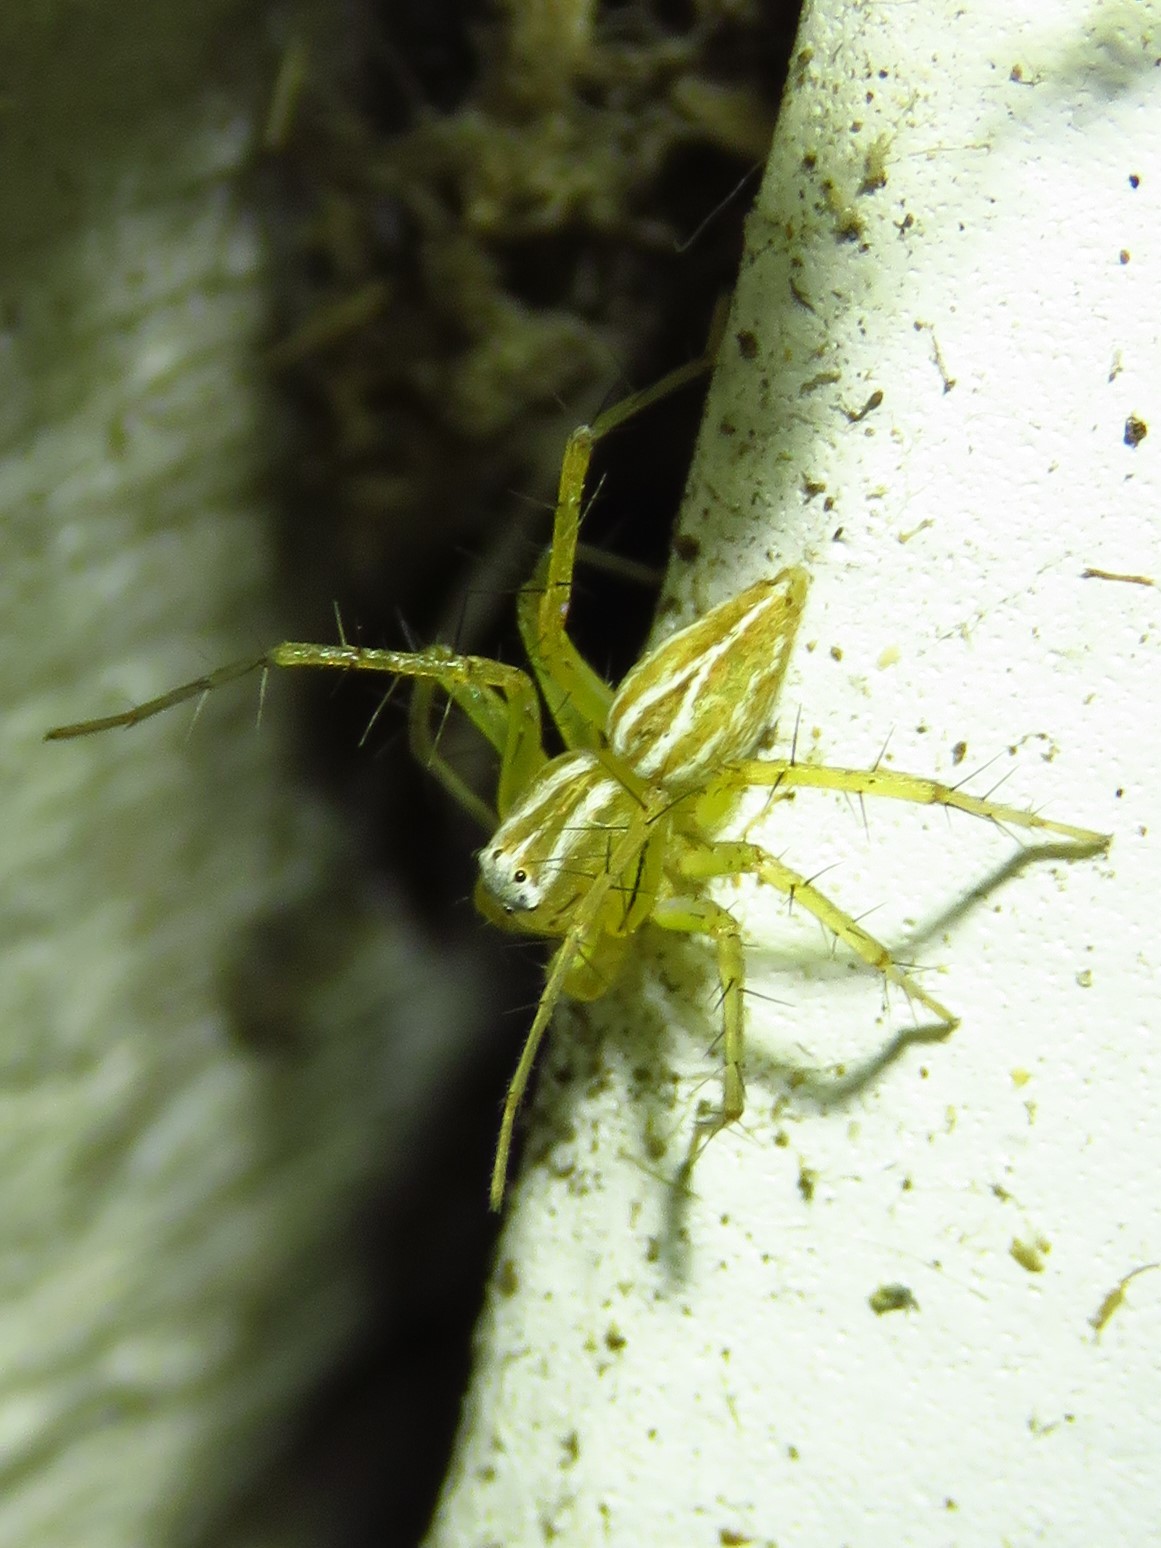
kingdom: Animalia
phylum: Arthropoda
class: Arachnida
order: Araneae
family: Oxyopidae
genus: Oxyopes
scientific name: Oxyopes salticus
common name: Lynx spiders
